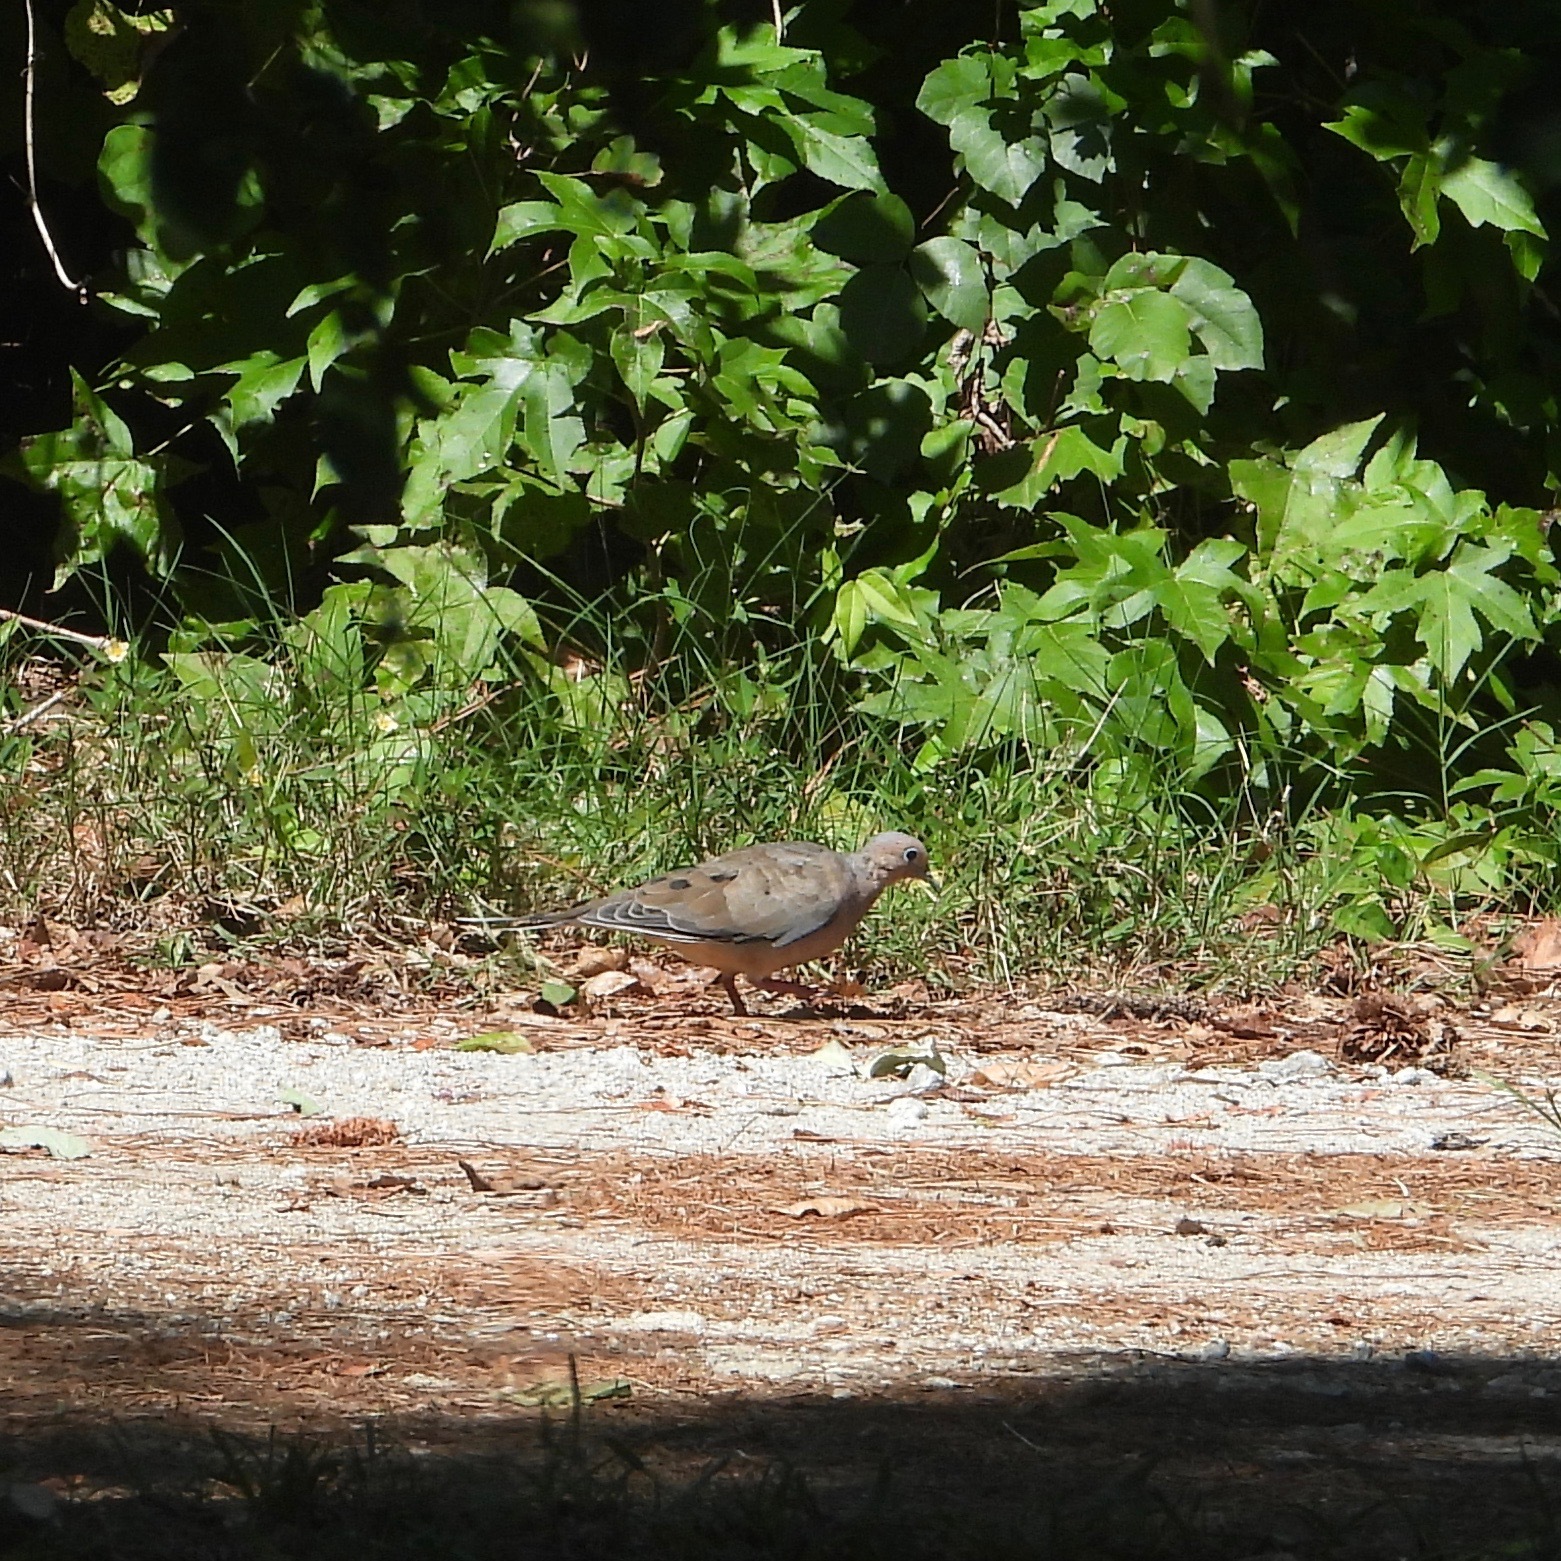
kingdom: Animalia
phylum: Chordata
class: Aves
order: Columbiformes
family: Columbidae
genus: Zenaida
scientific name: Zenaida macroura
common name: Mourning dove
